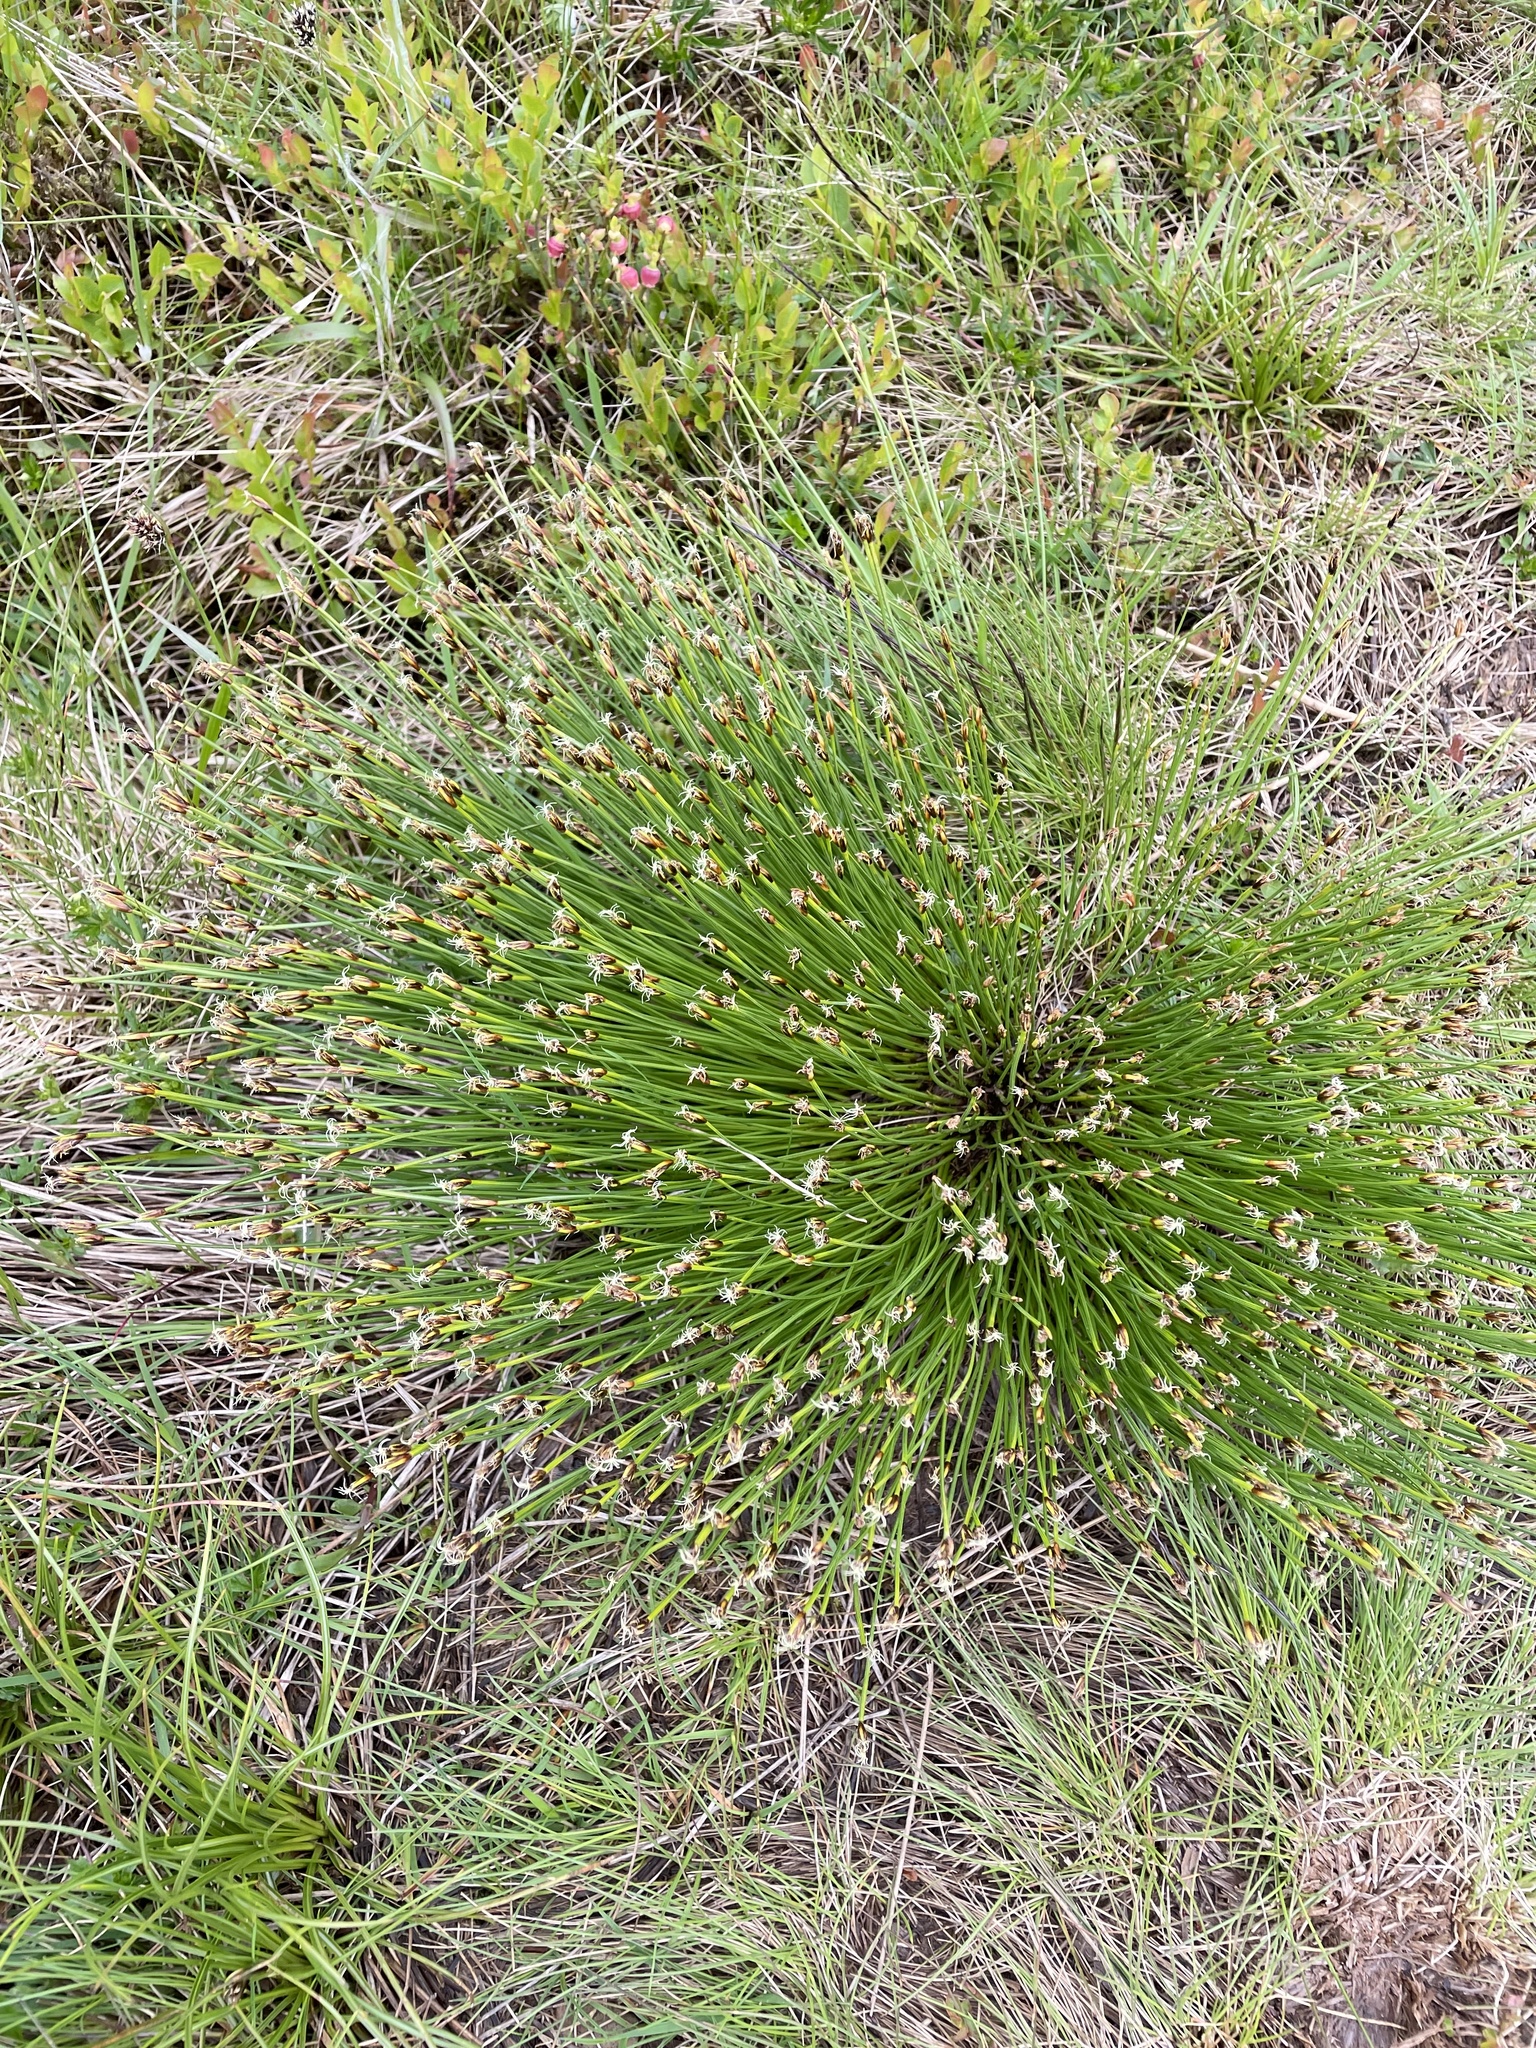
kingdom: Plantae
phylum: Tracheophyta
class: Liliopsida
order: Poales
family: Cyperaceae
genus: Trichophorum
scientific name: Trichophorum cespitosum
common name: Cespitose bulrush
